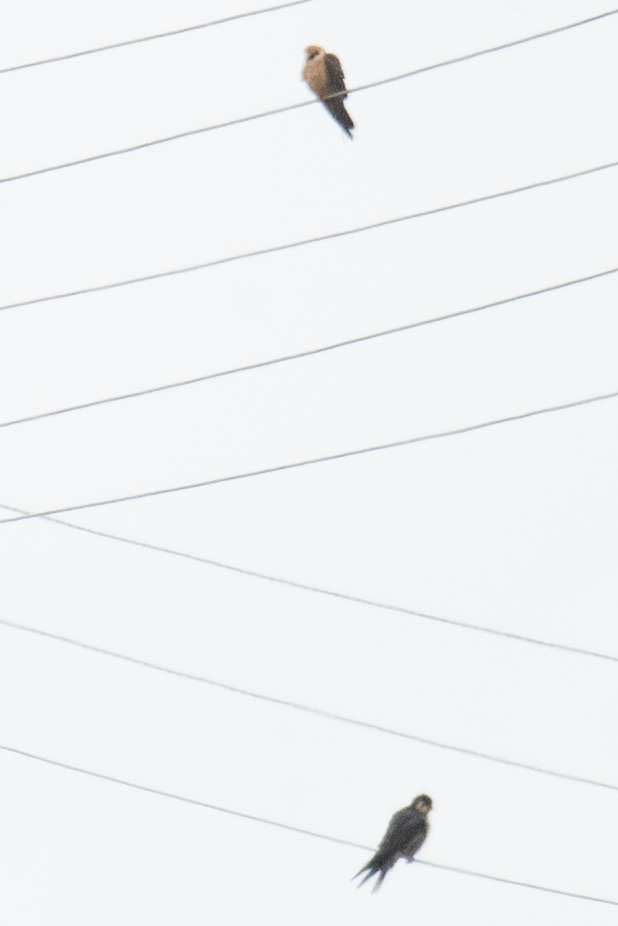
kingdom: Animalia
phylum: Chordata
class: Aves
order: Falconiformes
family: Falconidae
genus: Falco
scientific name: Falco vespertinus
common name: Red-footed falcon
